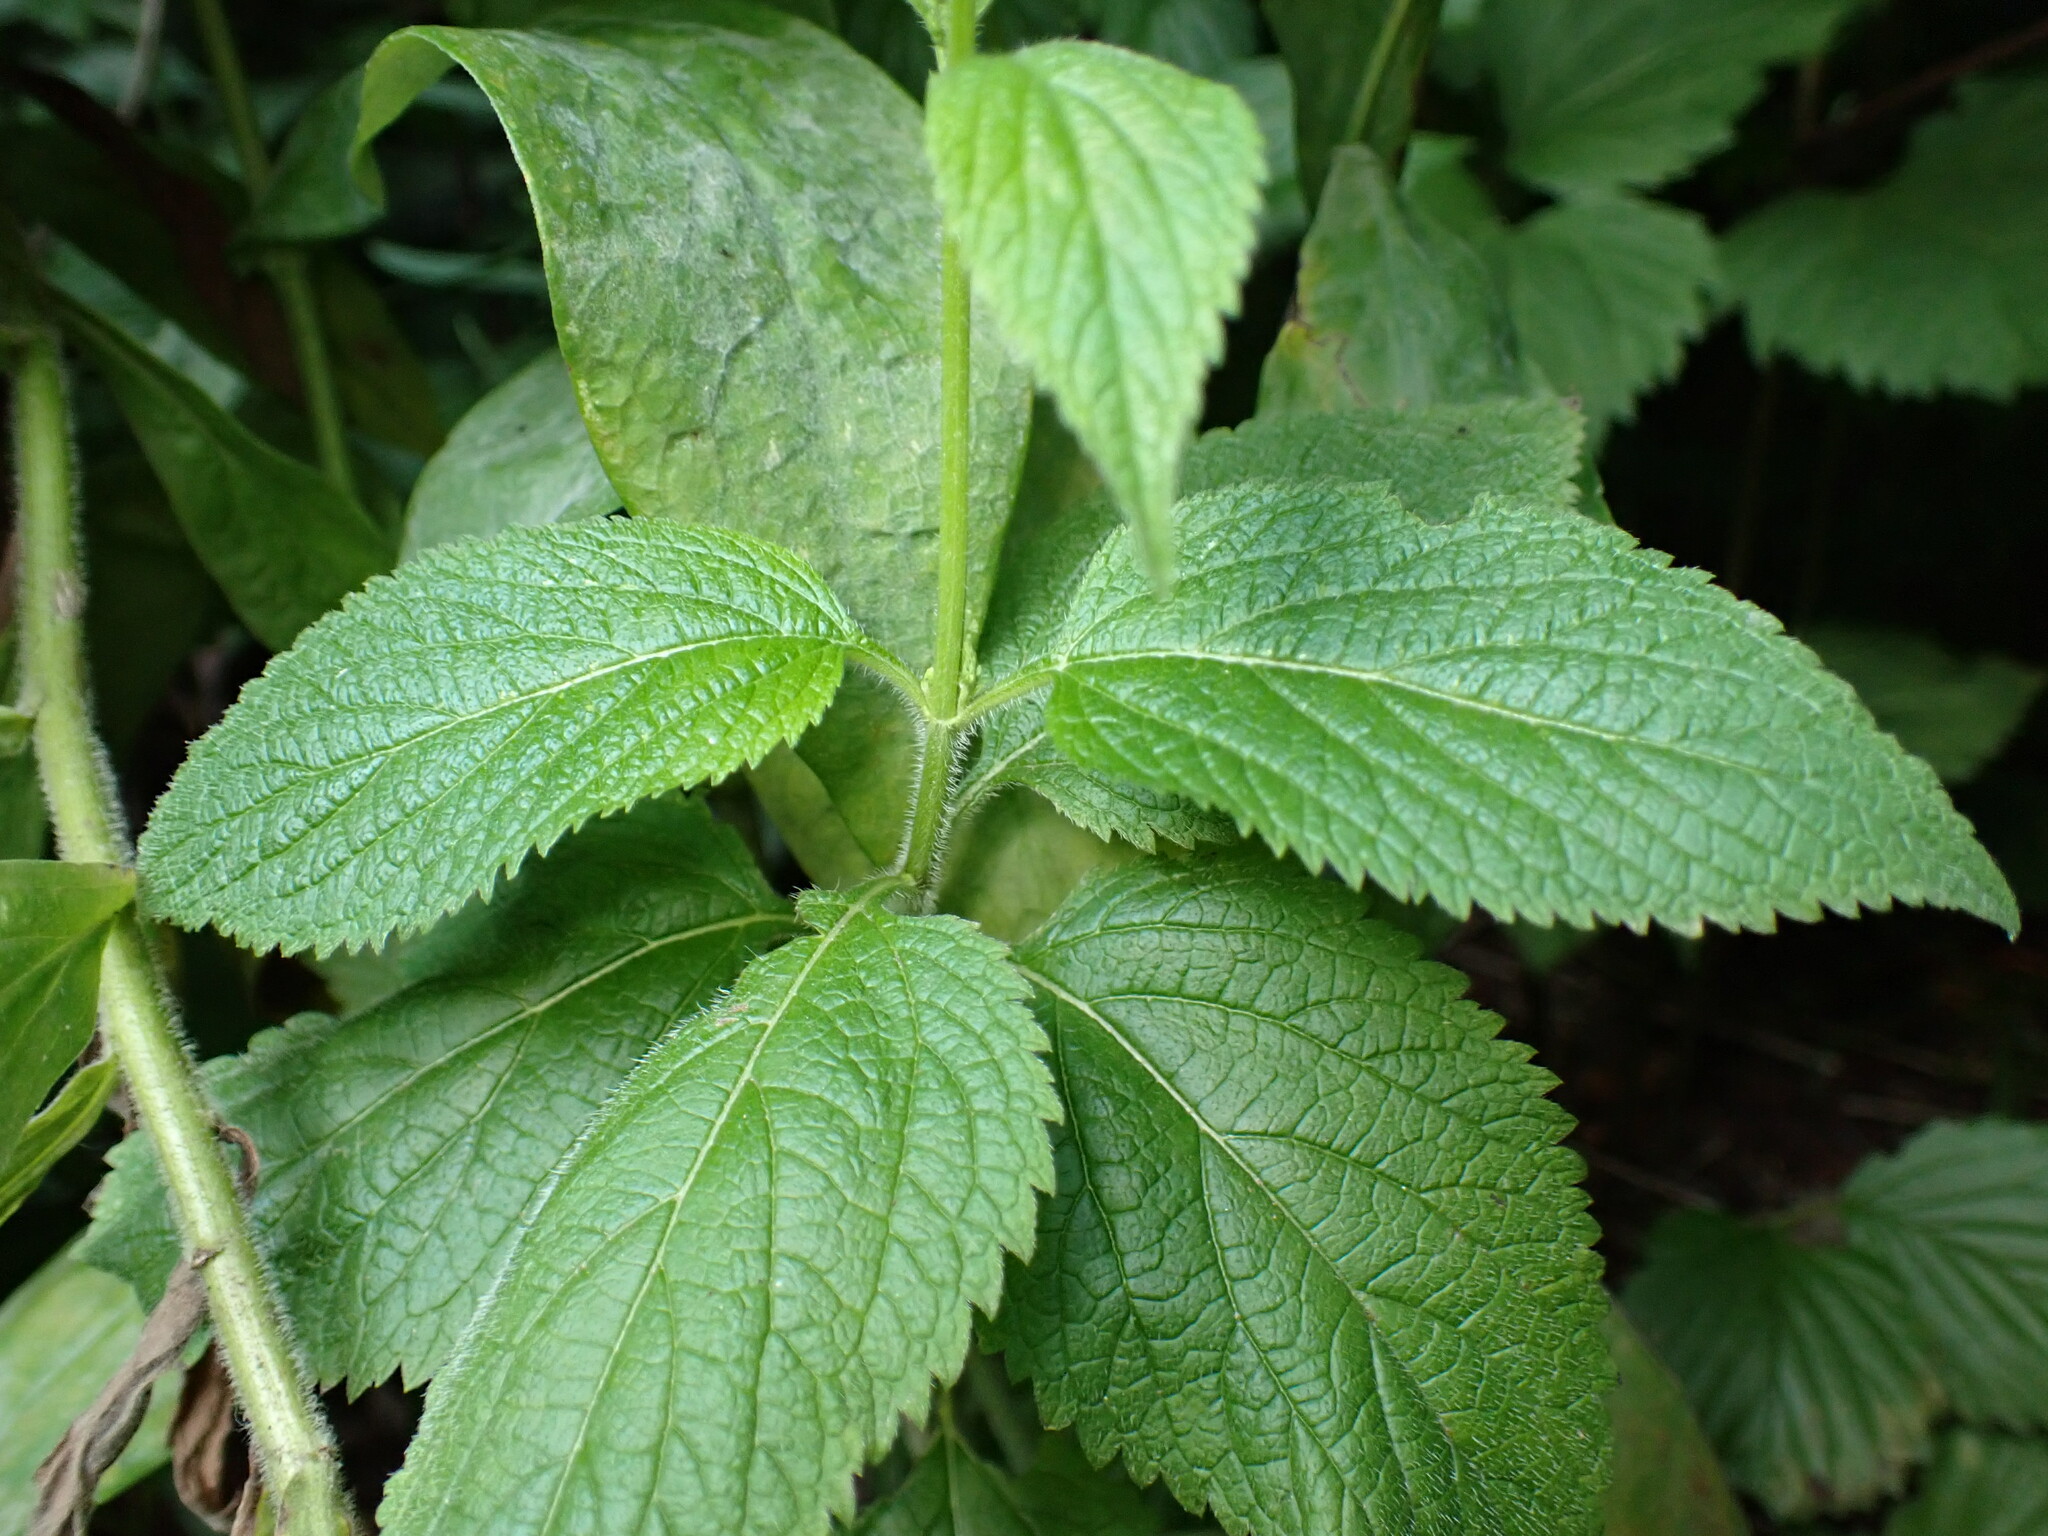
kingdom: Plantae
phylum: Tracheophyta
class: Magnoliopsida
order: Lamiales
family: Verbenaceae
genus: Verbena
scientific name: Verbena urticifolia
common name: Nettle-leaved vervain
